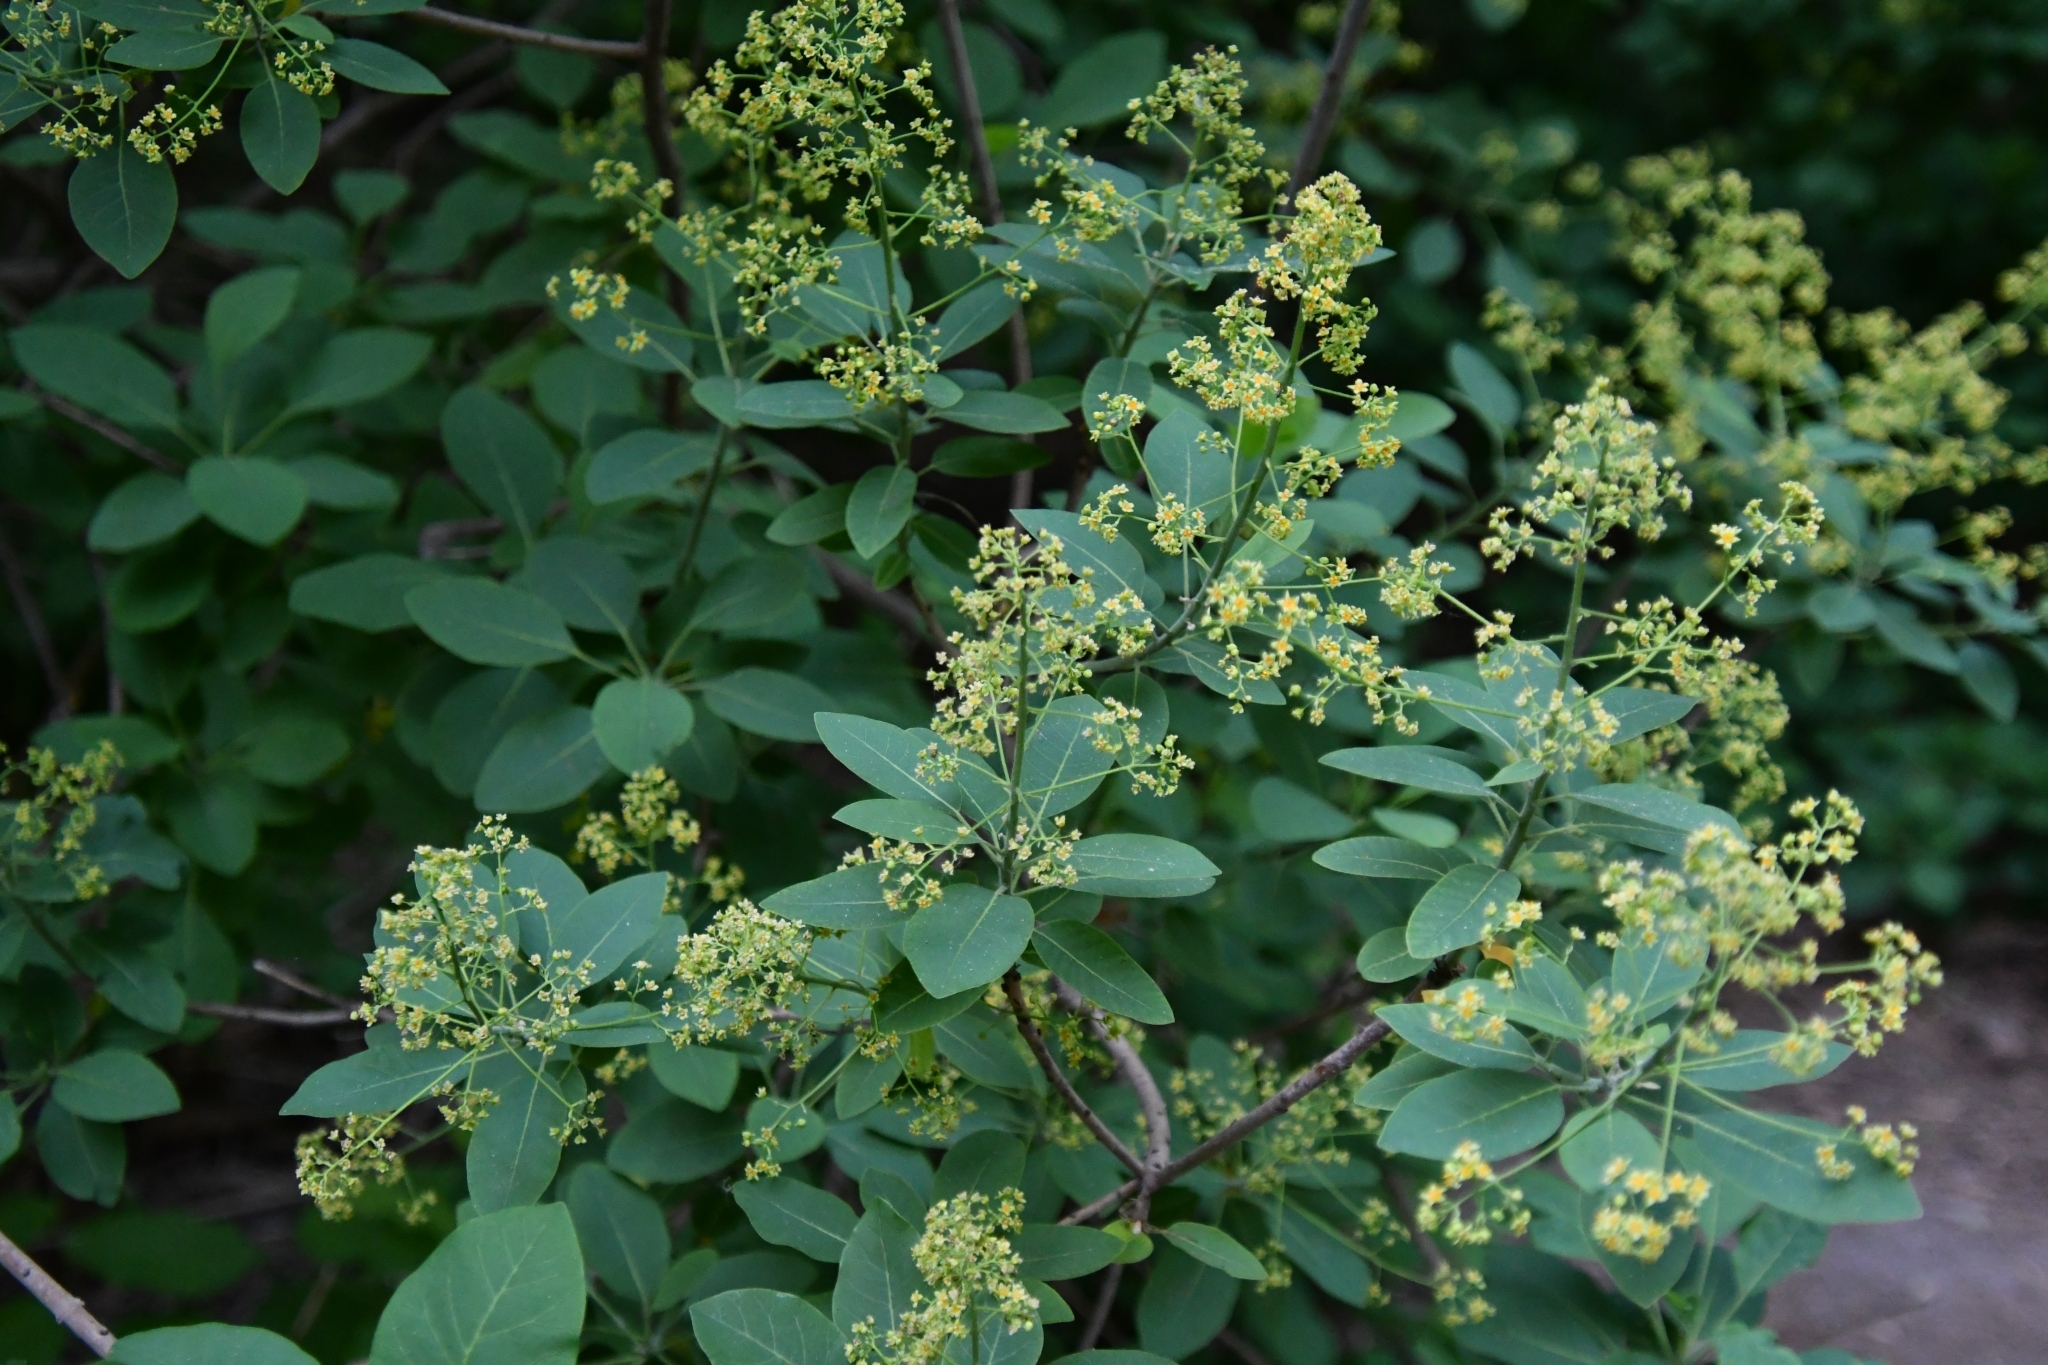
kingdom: Plantae
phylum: Tracheophyta
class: Magnoliopsida
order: Sapindales
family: Anacardiaceae
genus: Cotinus
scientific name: Cotinus coggygria
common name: Smoke-tree
